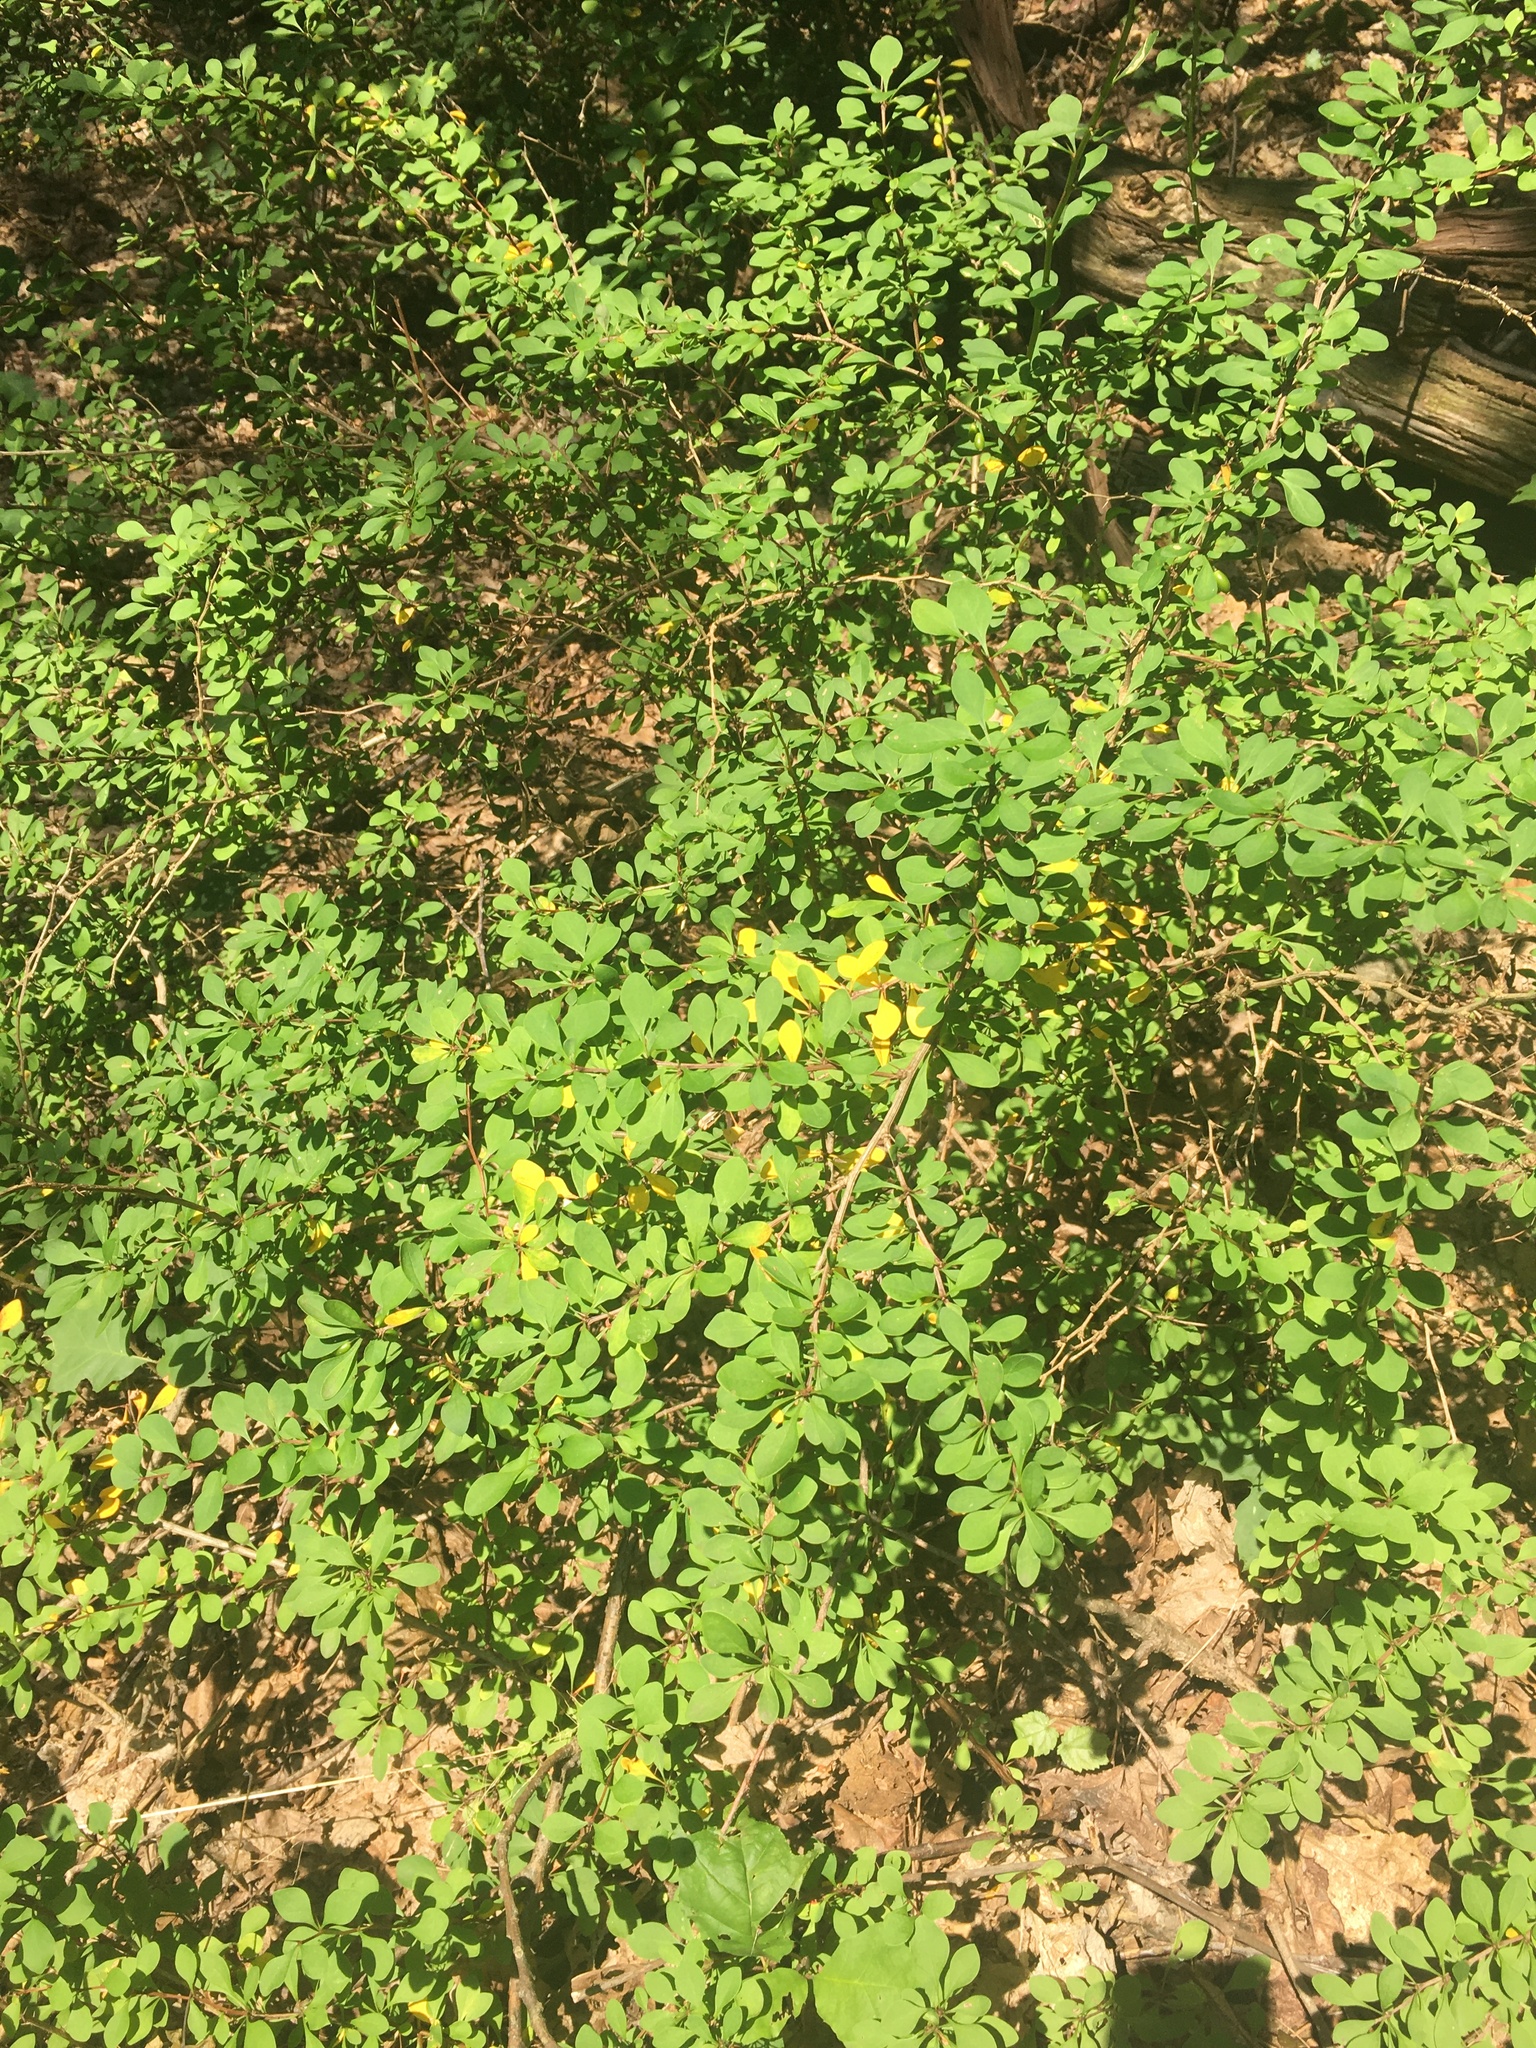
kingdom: Plantae
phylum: Tracheophyta
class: Magnoliopsida
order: Ranunculales
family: Berberidaceae
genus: Berberis
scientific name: Berberis thunbergii
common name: Japanese barberry
